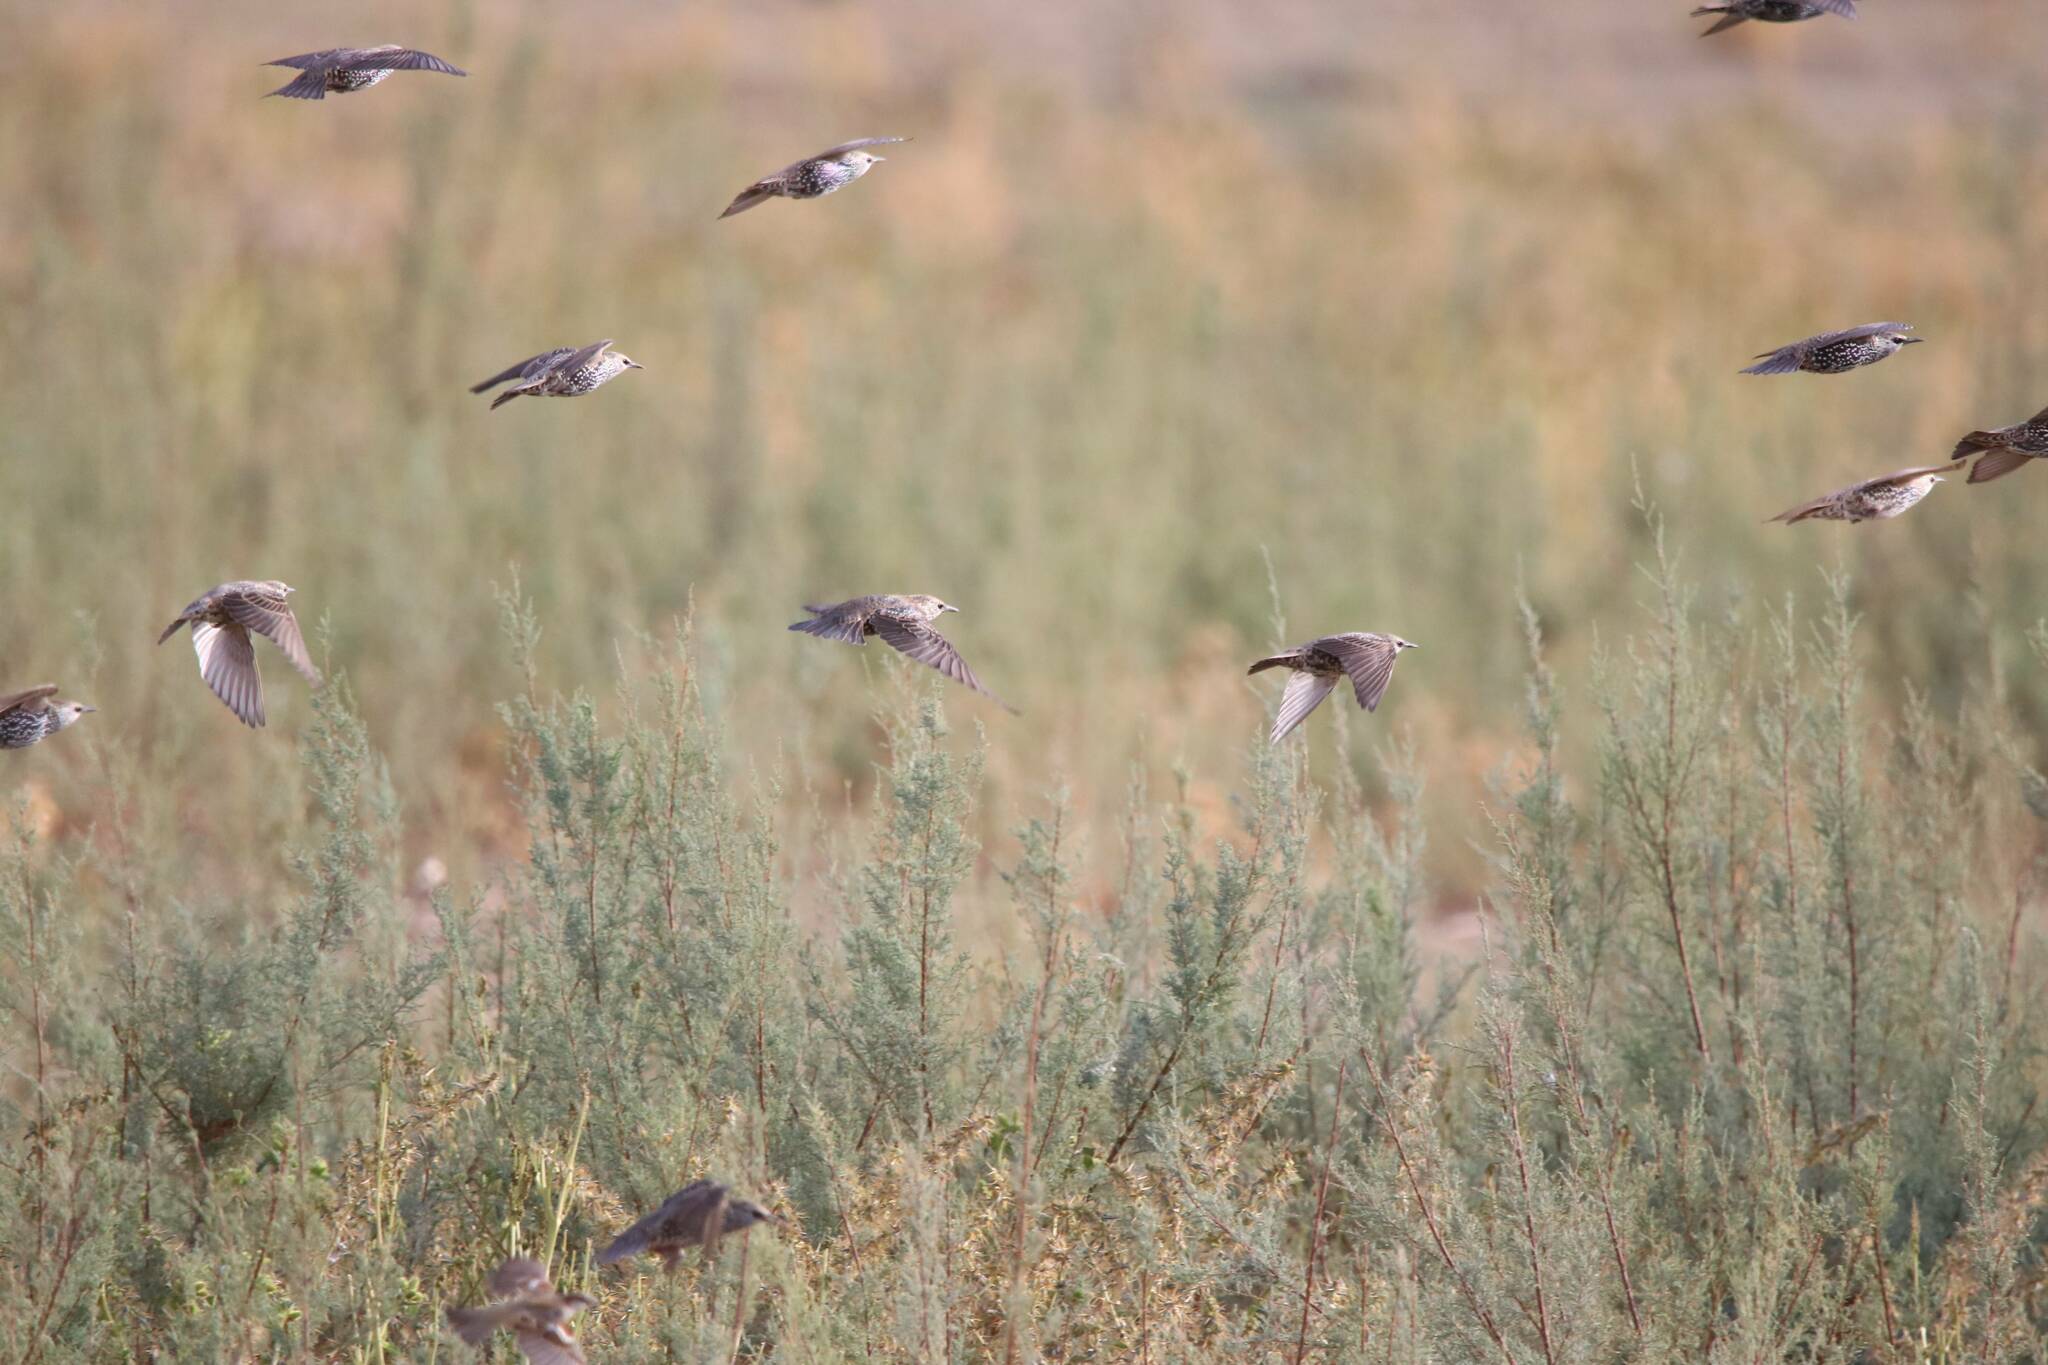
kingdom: Animalia
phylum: Chordata
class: Aves
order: Passeriformes
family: Sturnidae
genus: Sturnus
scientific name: Sturnus vulgaris
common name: Common starling
